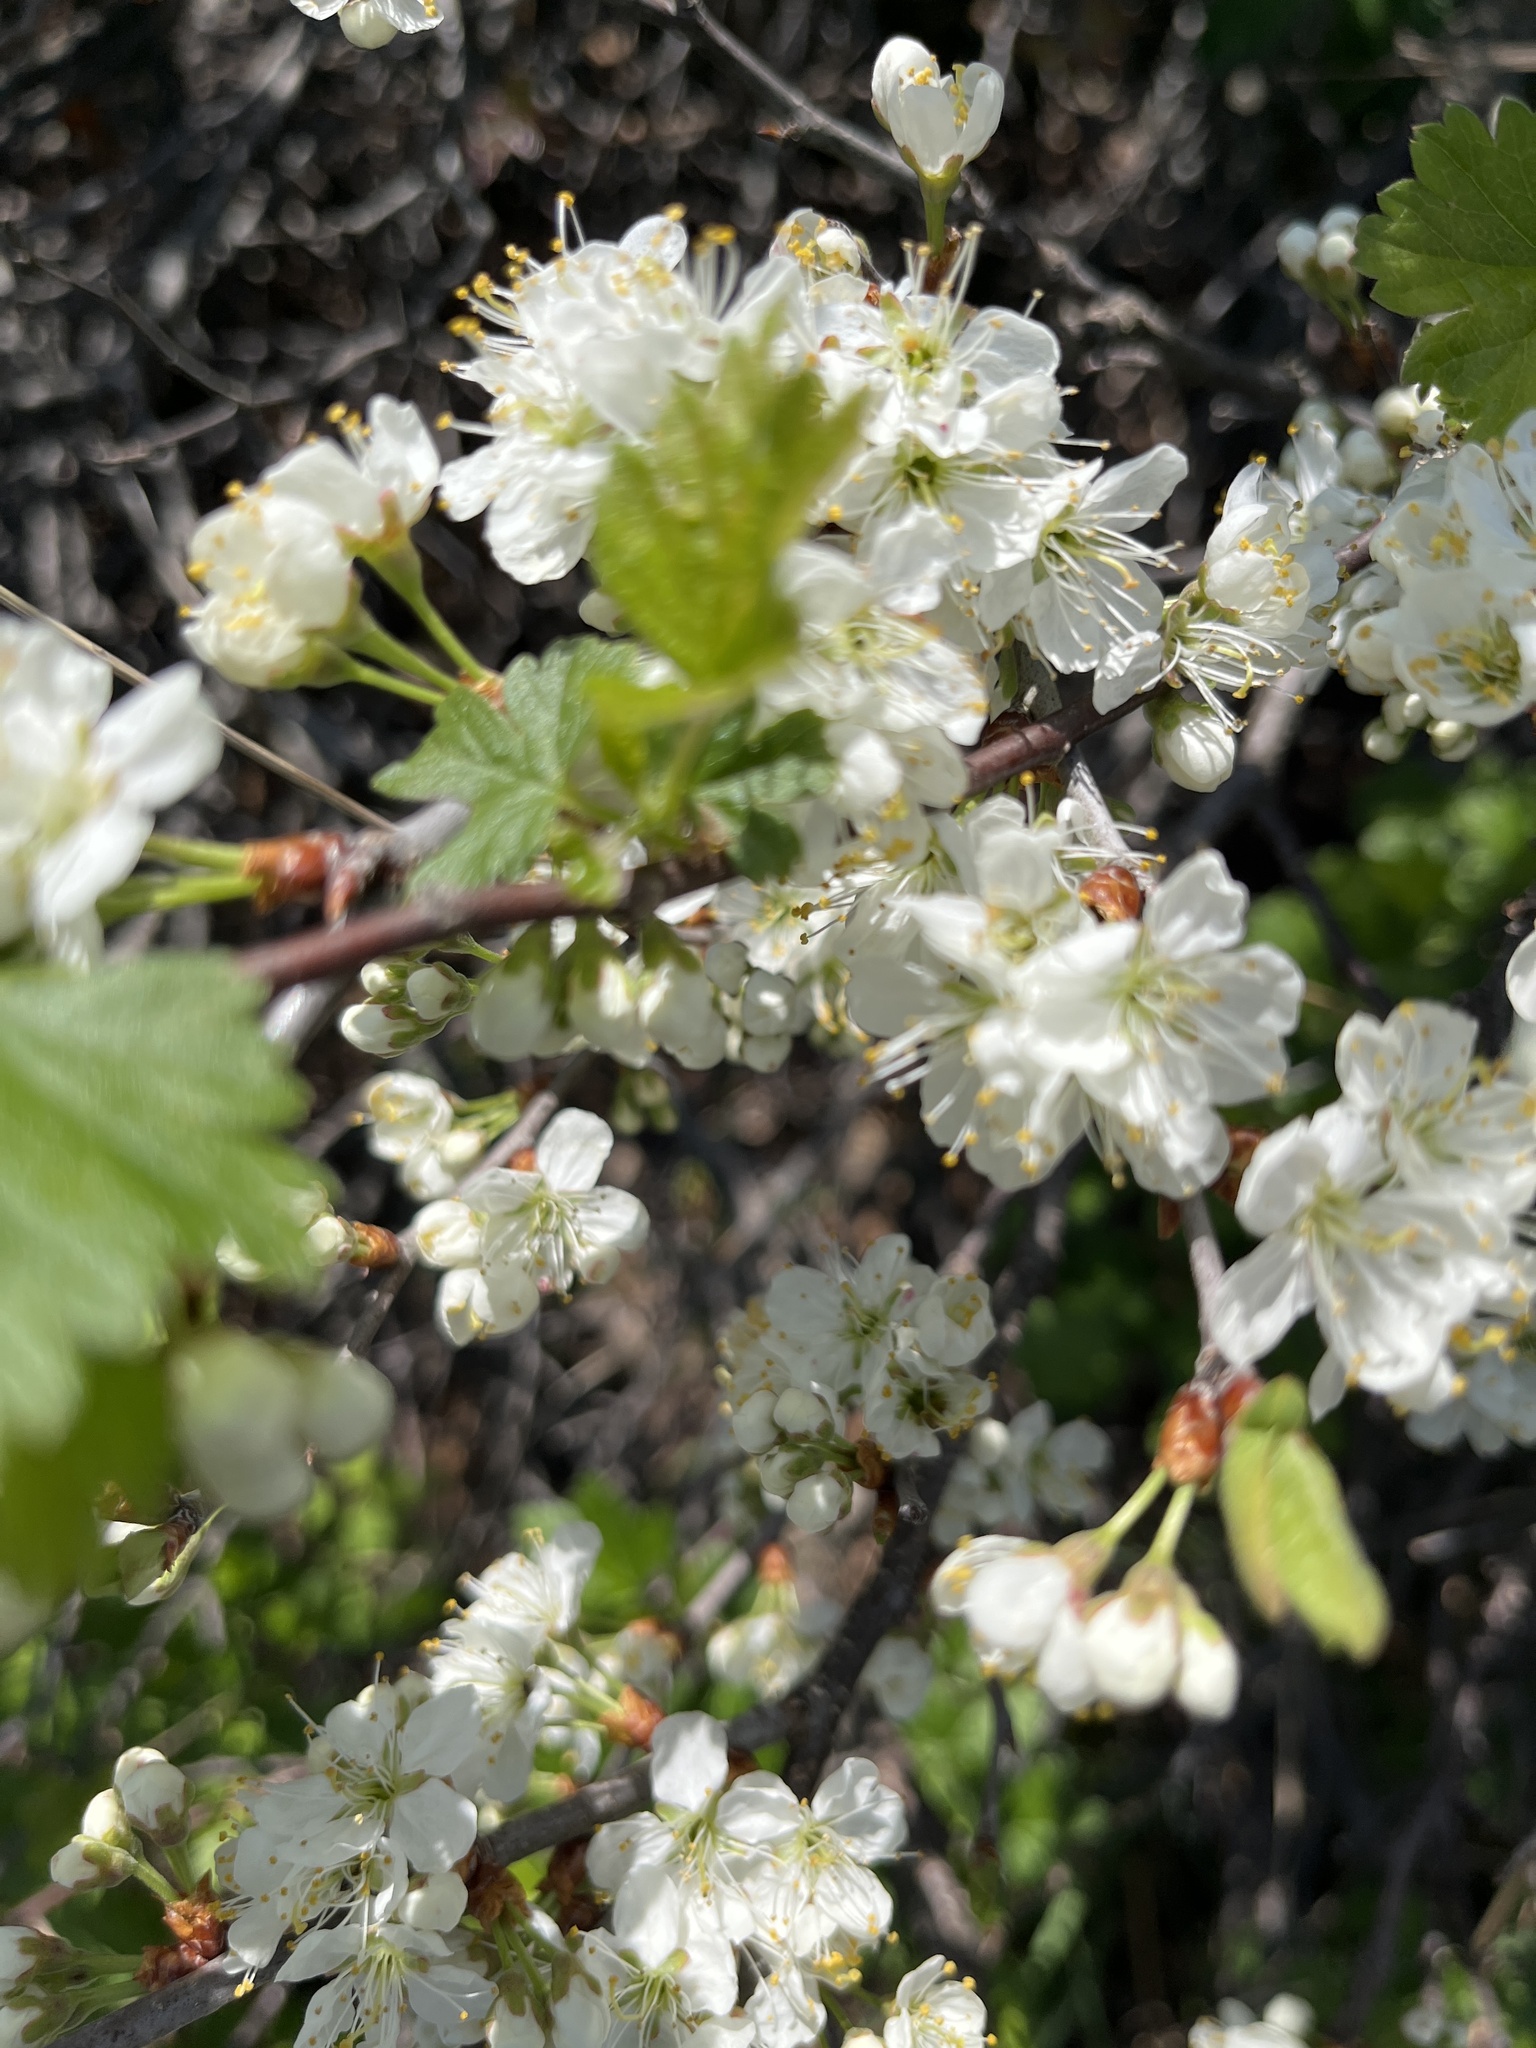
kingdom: Plantae
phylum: Tracheophyta
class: Magnoliopsida
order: Rosales
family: Rosaceae
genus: Prunus
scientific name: Prunus maritima
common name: Beach plum
